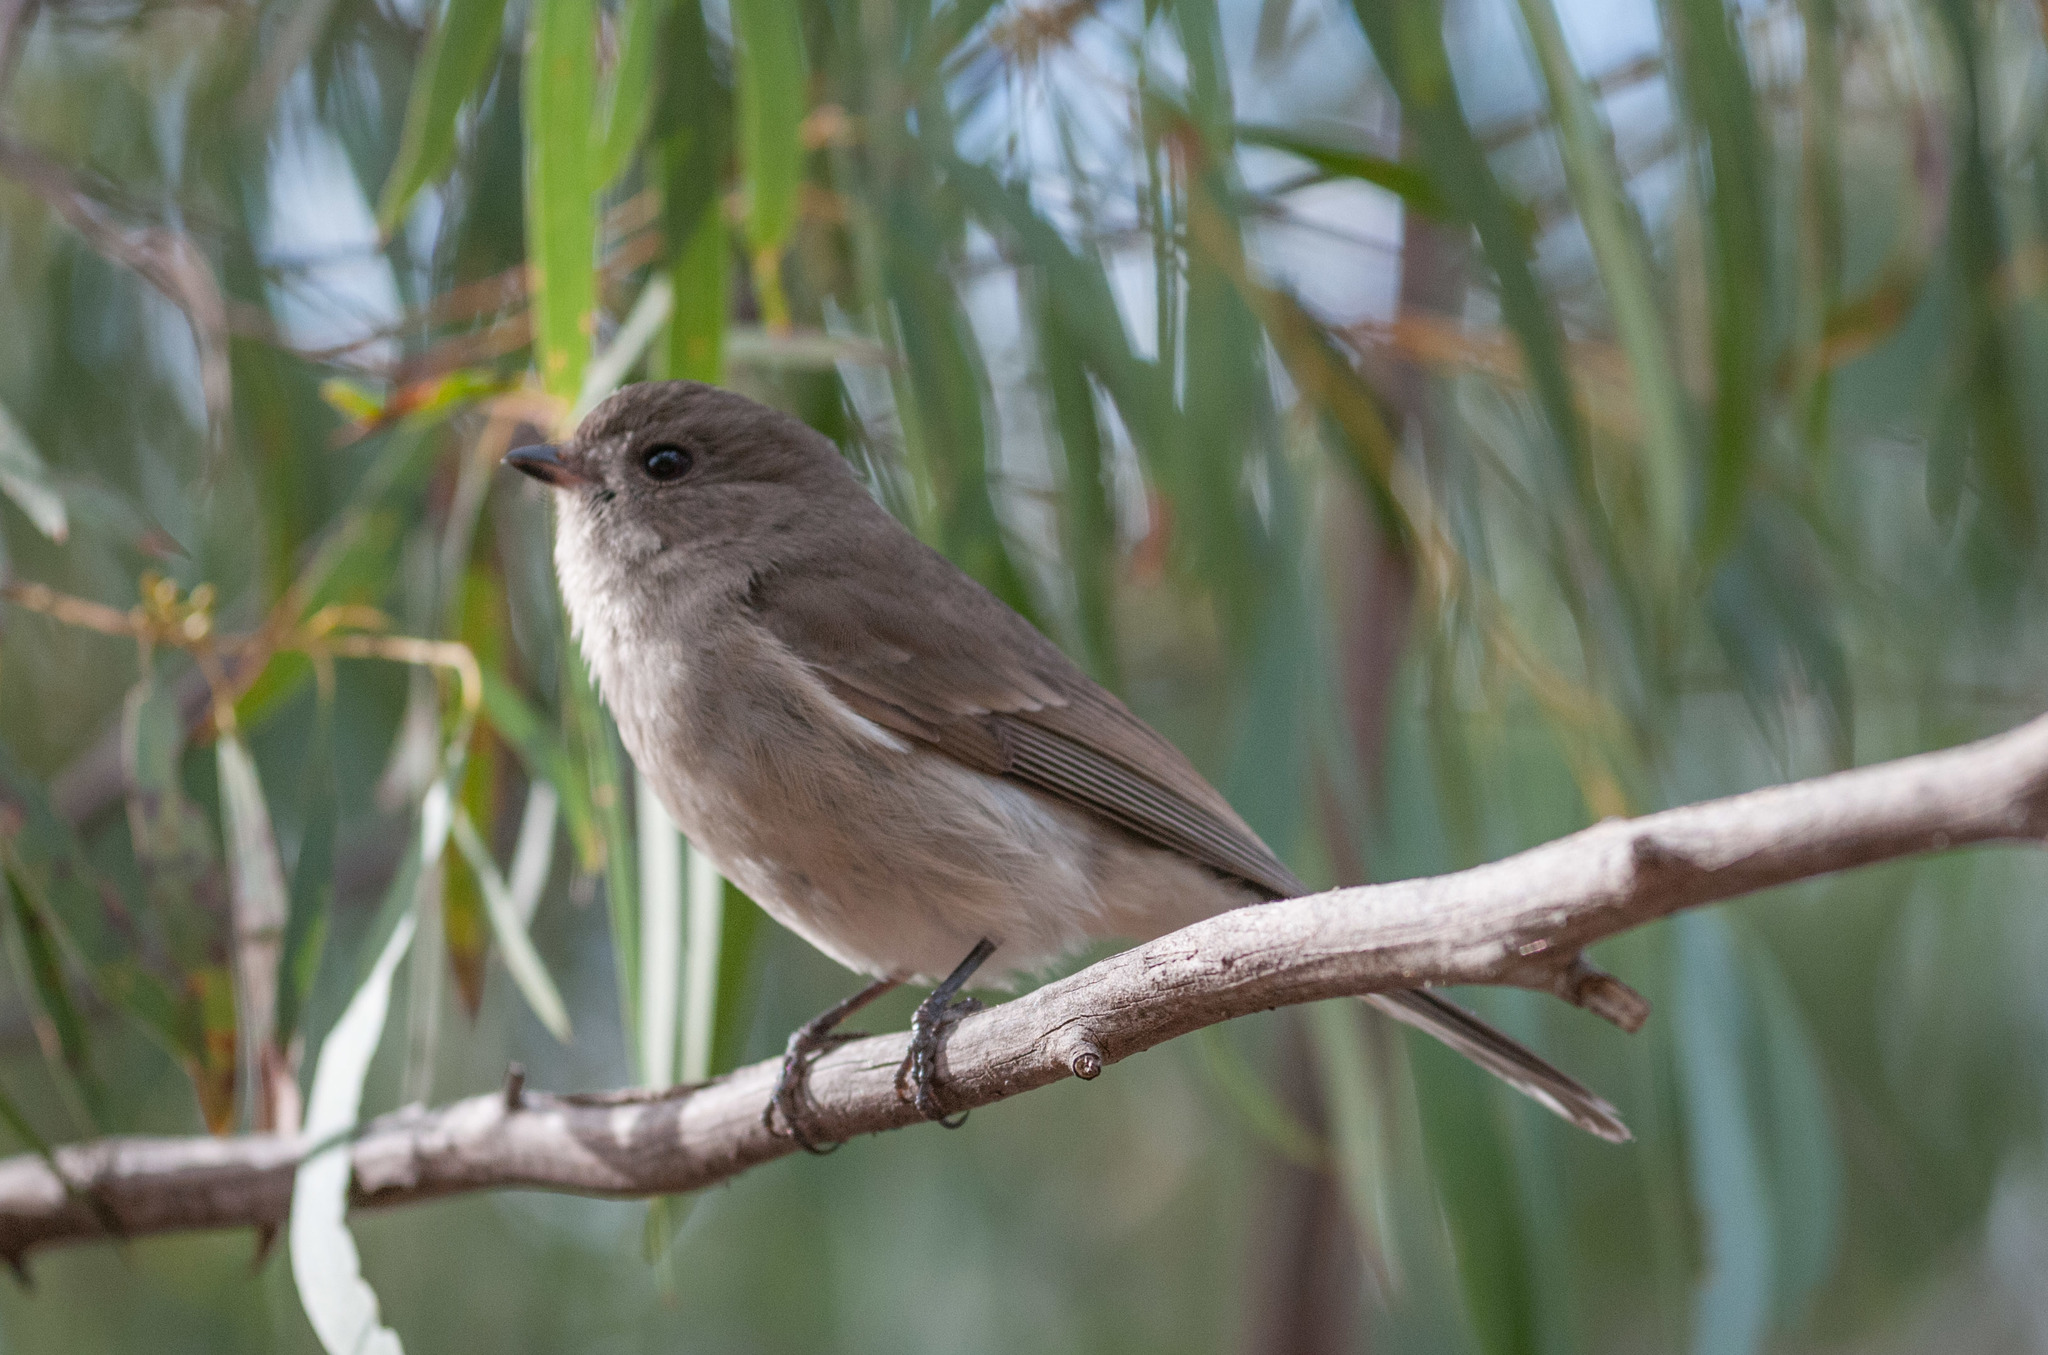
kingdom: Animalia
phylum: Chordata
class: Aves
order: Passeriformes
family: Pachycephalidae
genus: Pachycephala
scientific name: Pachycephala pectoralis
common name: Australian golden whistler
